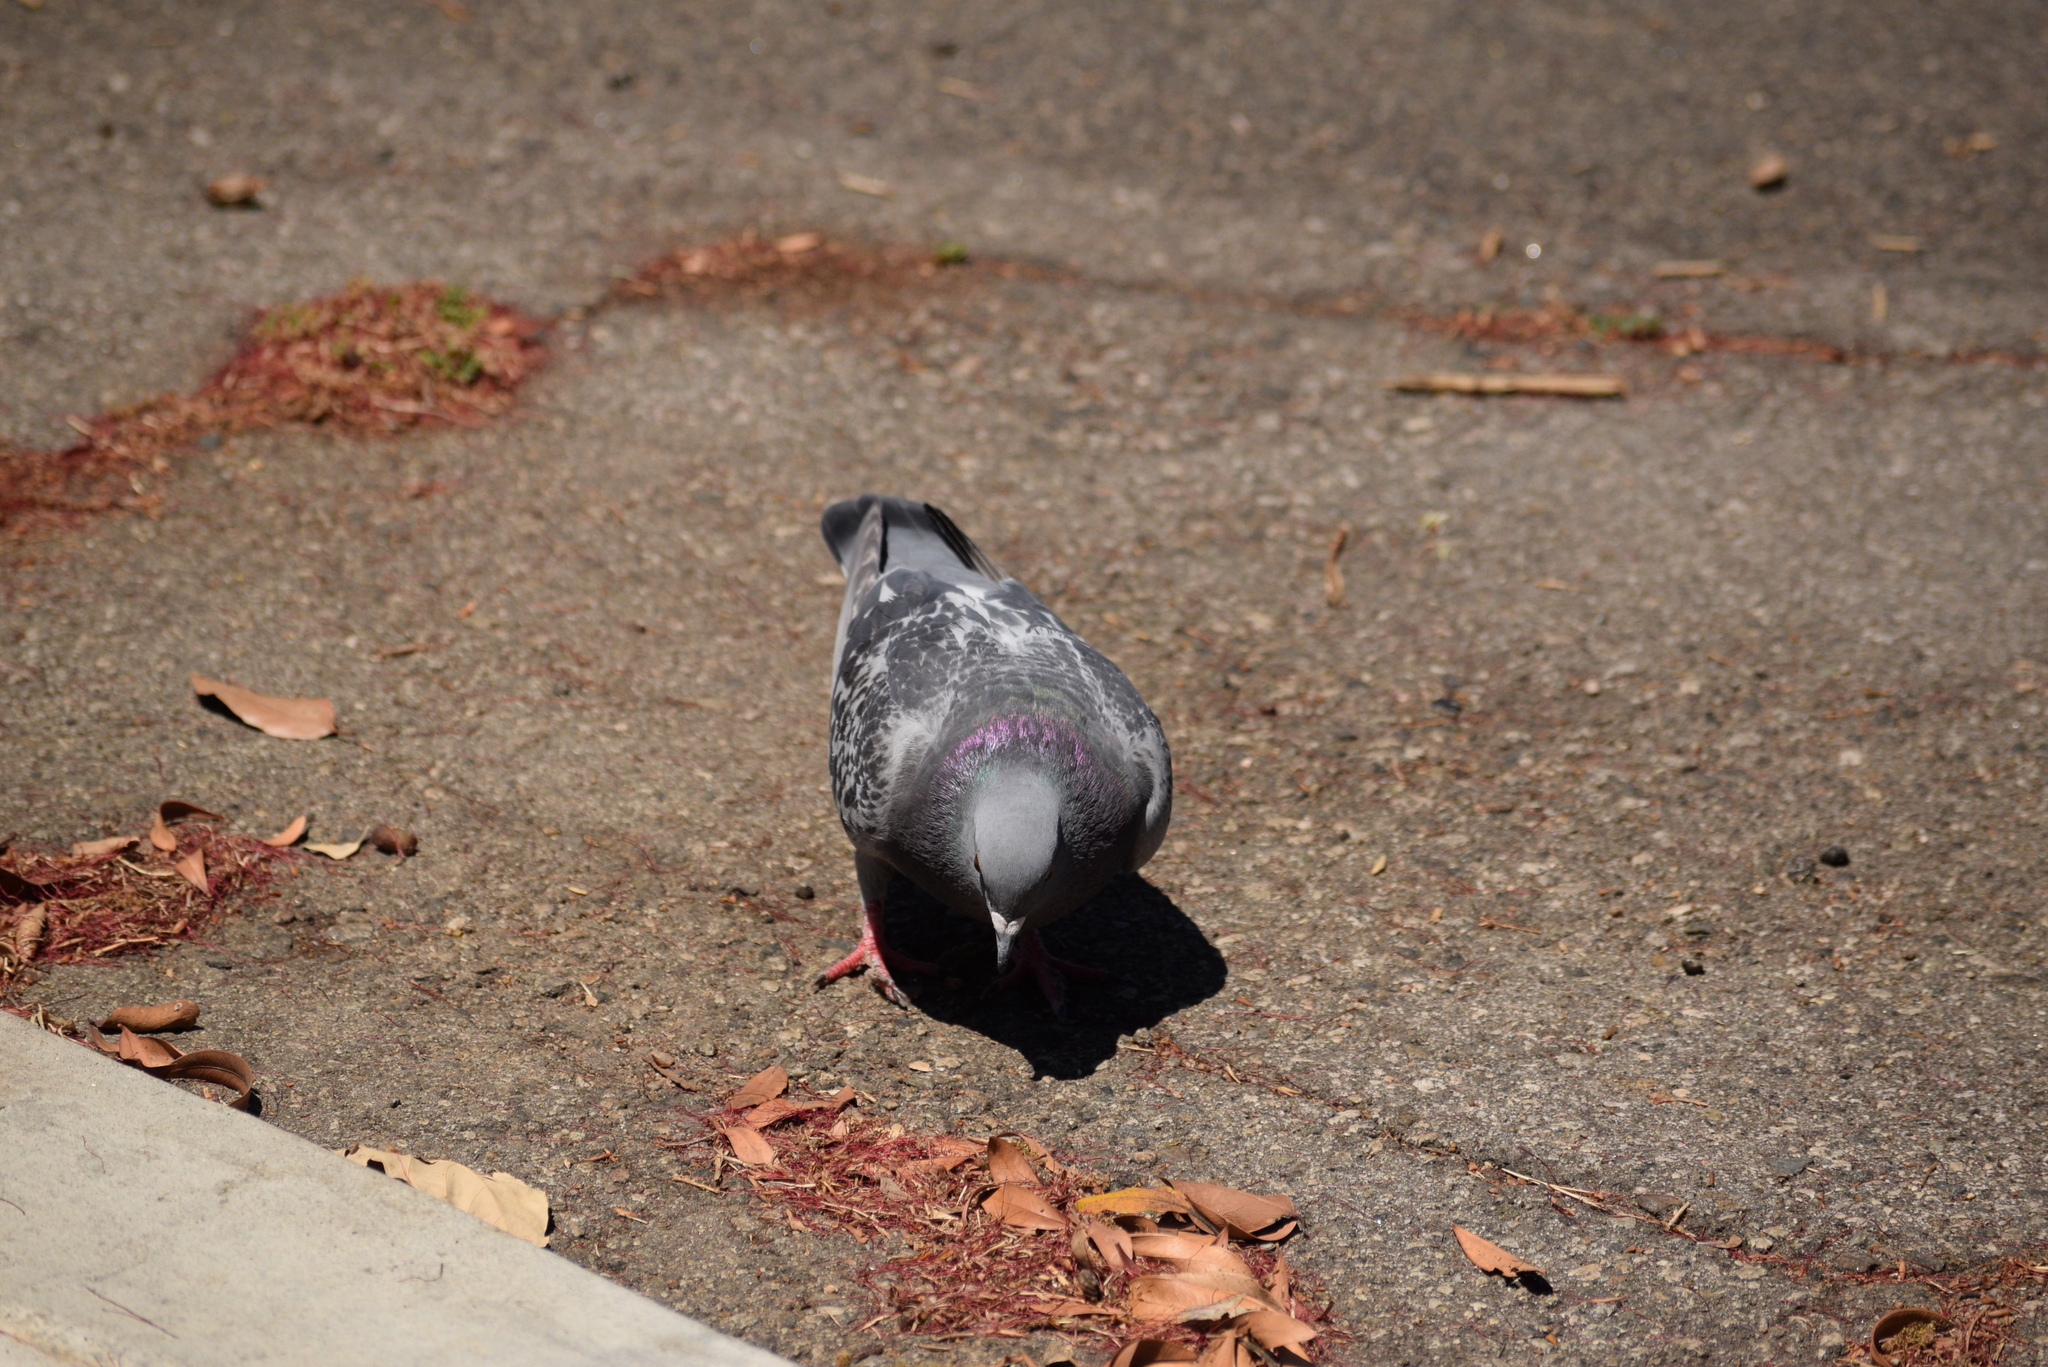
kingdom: Animalia
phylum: Chordata
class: Aves
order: Columbiformes
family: Columbidae
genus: Columba
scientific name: Columba livia
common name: Rock pigeon
